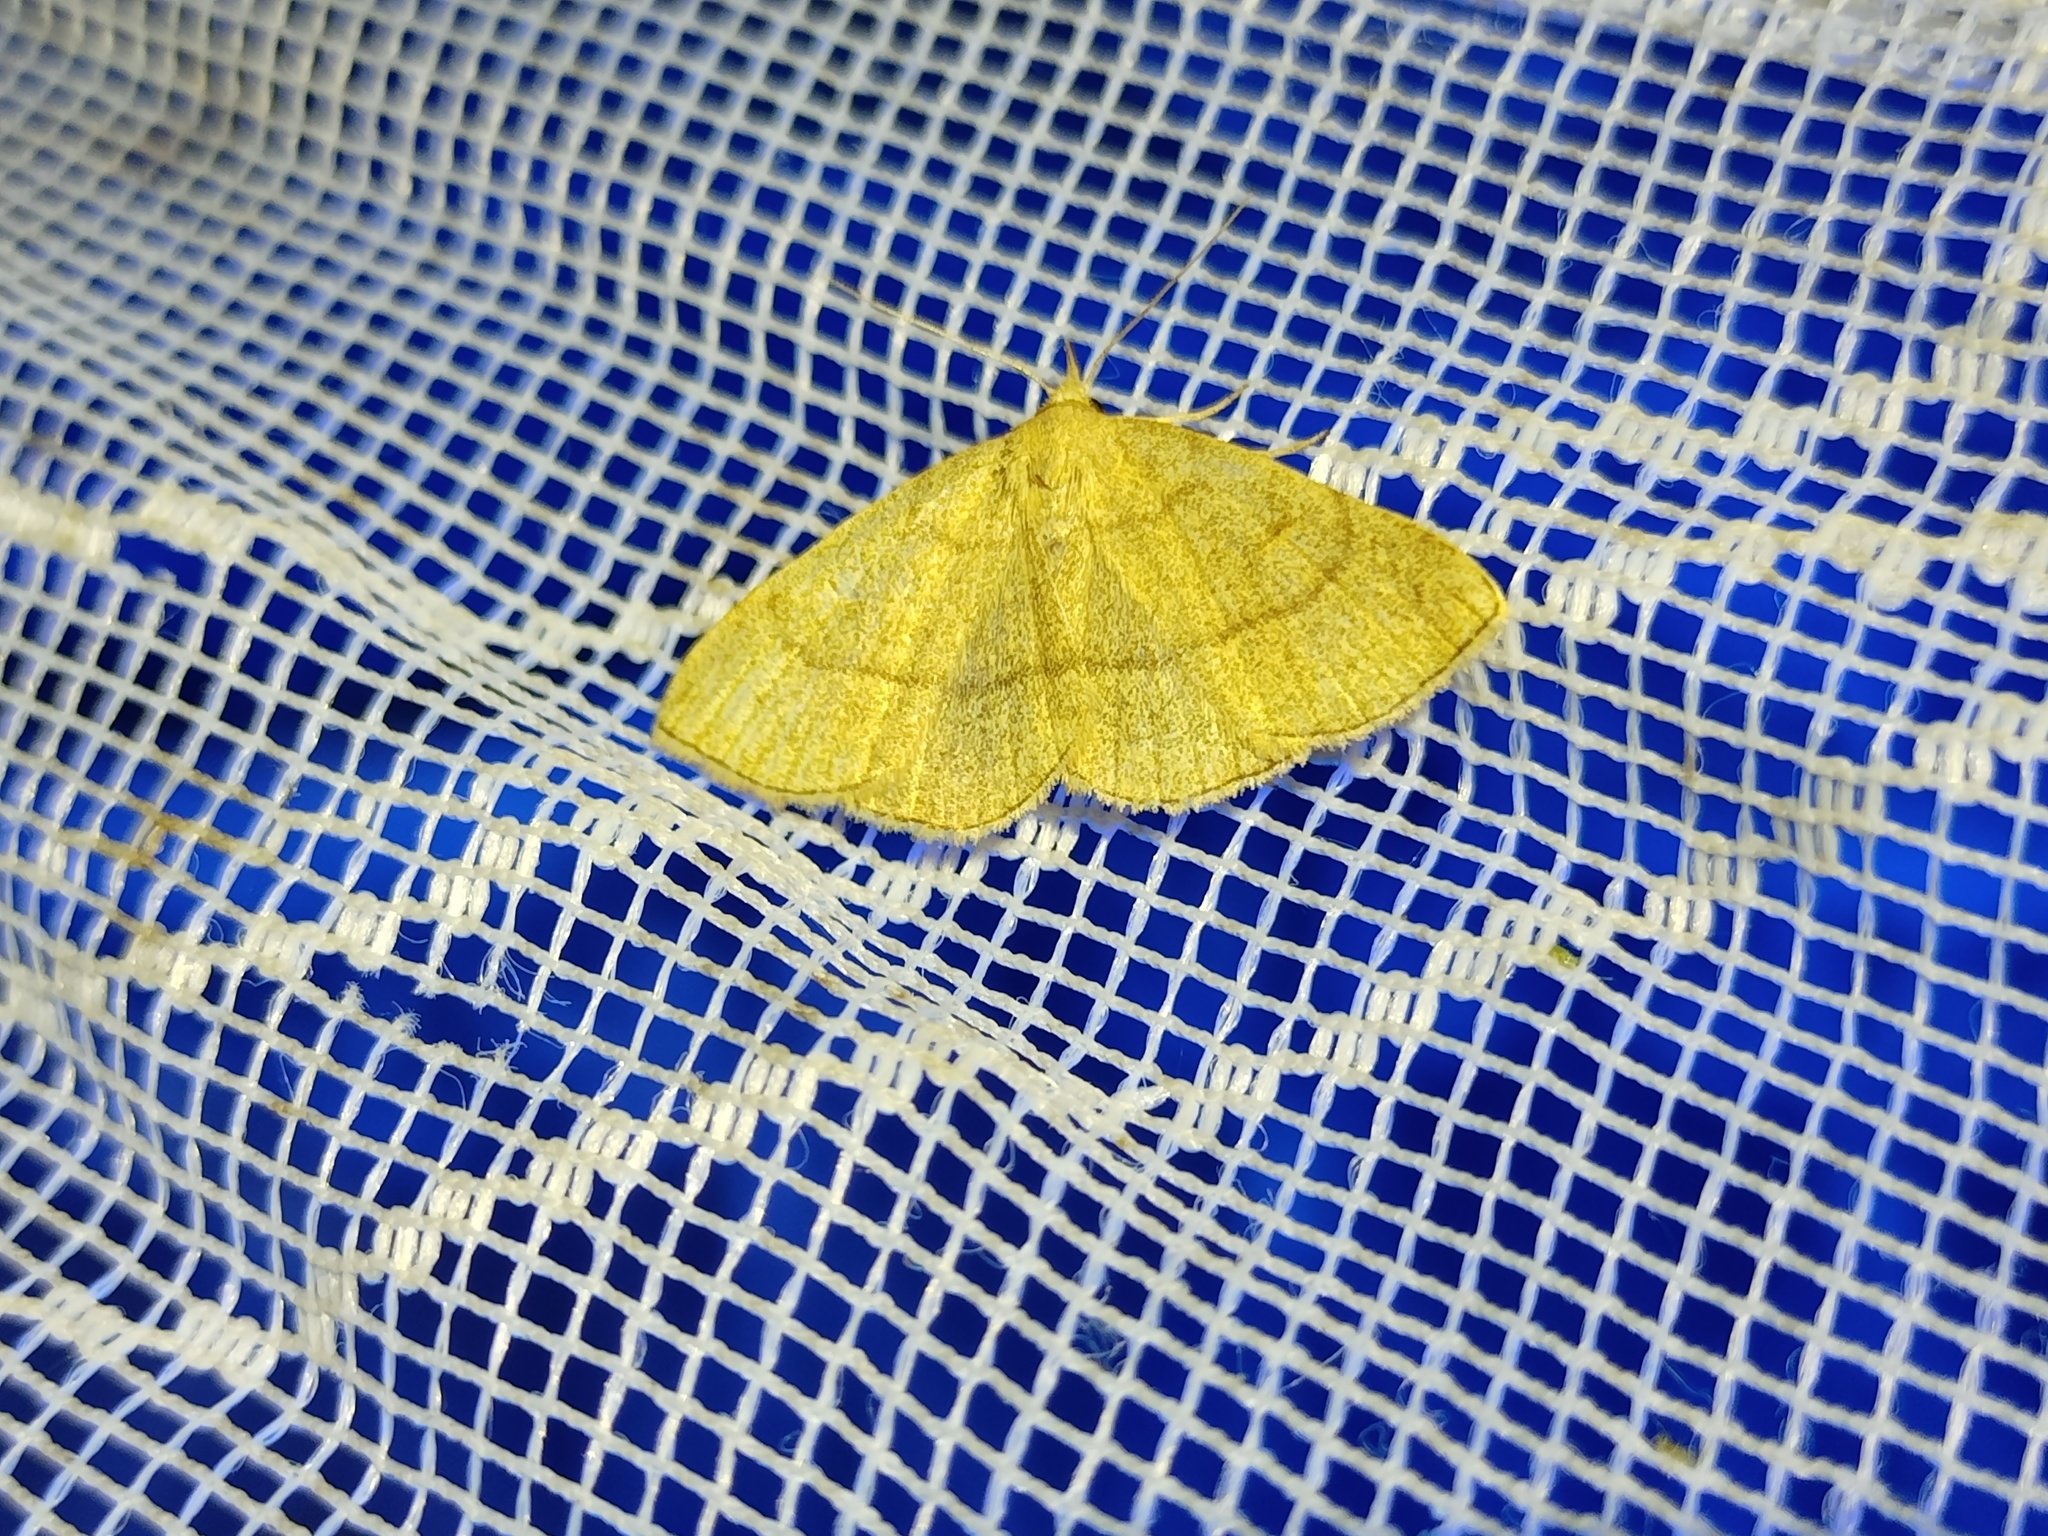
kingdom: Animalia
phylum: Arthropoda
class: Insecta
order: Lepidoptera
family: Erebidae
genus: Paracolax
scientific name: Paracolax tristalis
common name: Clay fan-foot
